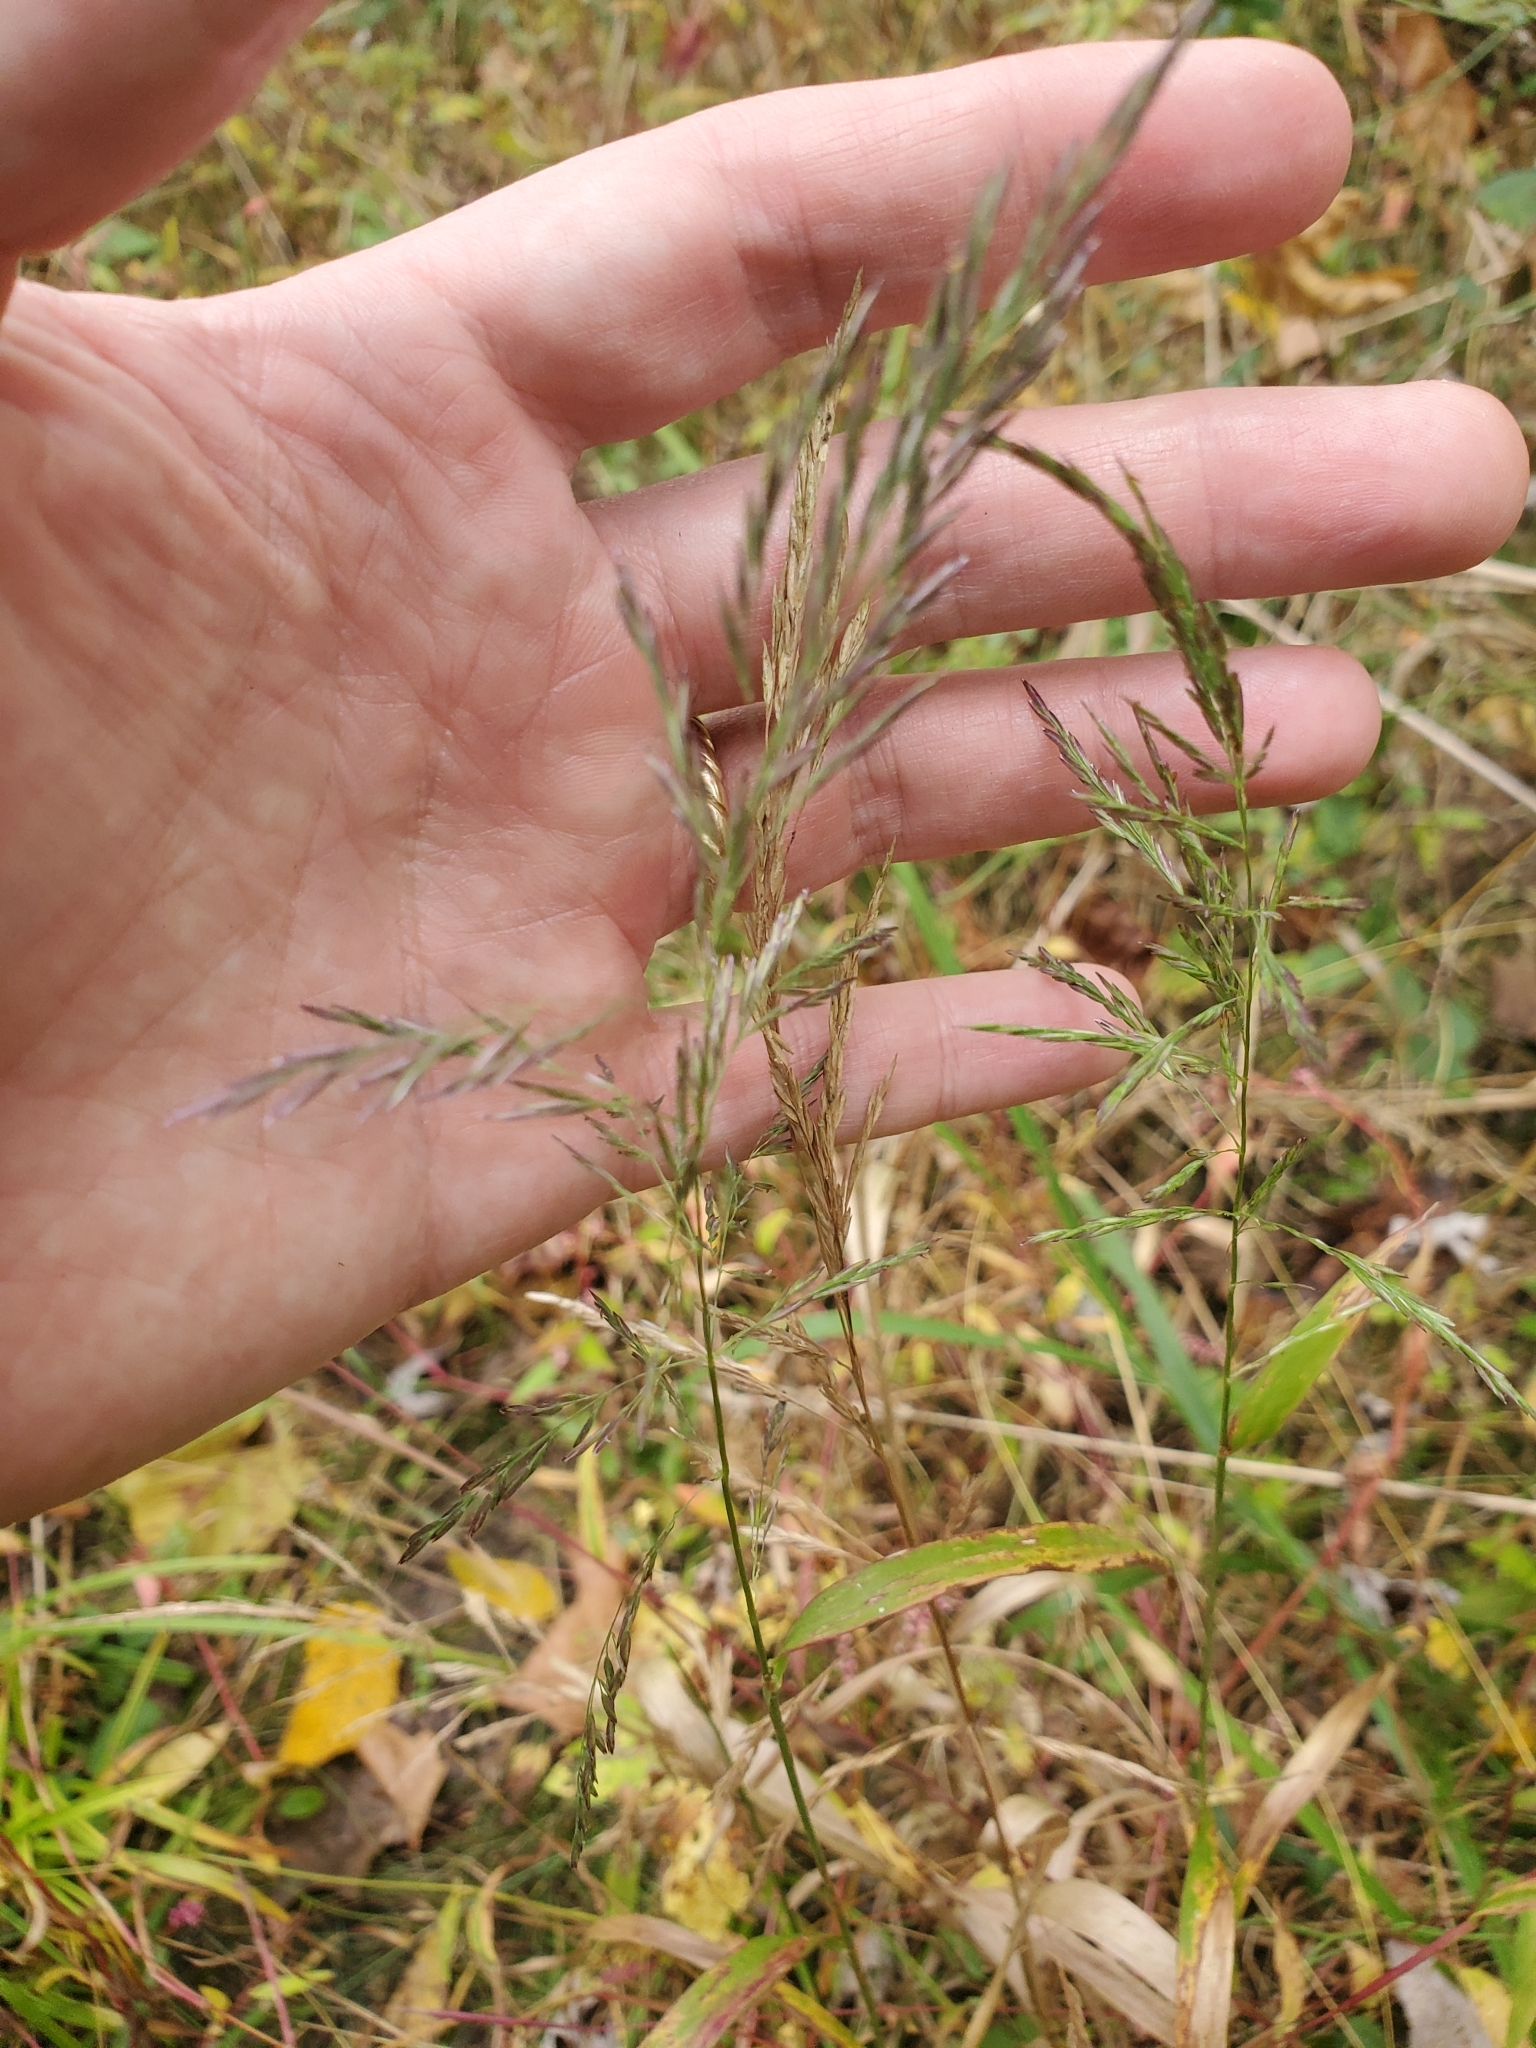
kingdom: Plantae
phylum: Tracheophyta
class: Liliopsida
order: Poales
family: Poaceae
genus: Cinna
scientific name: Cinna arundinacea
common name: Stout woodreed
